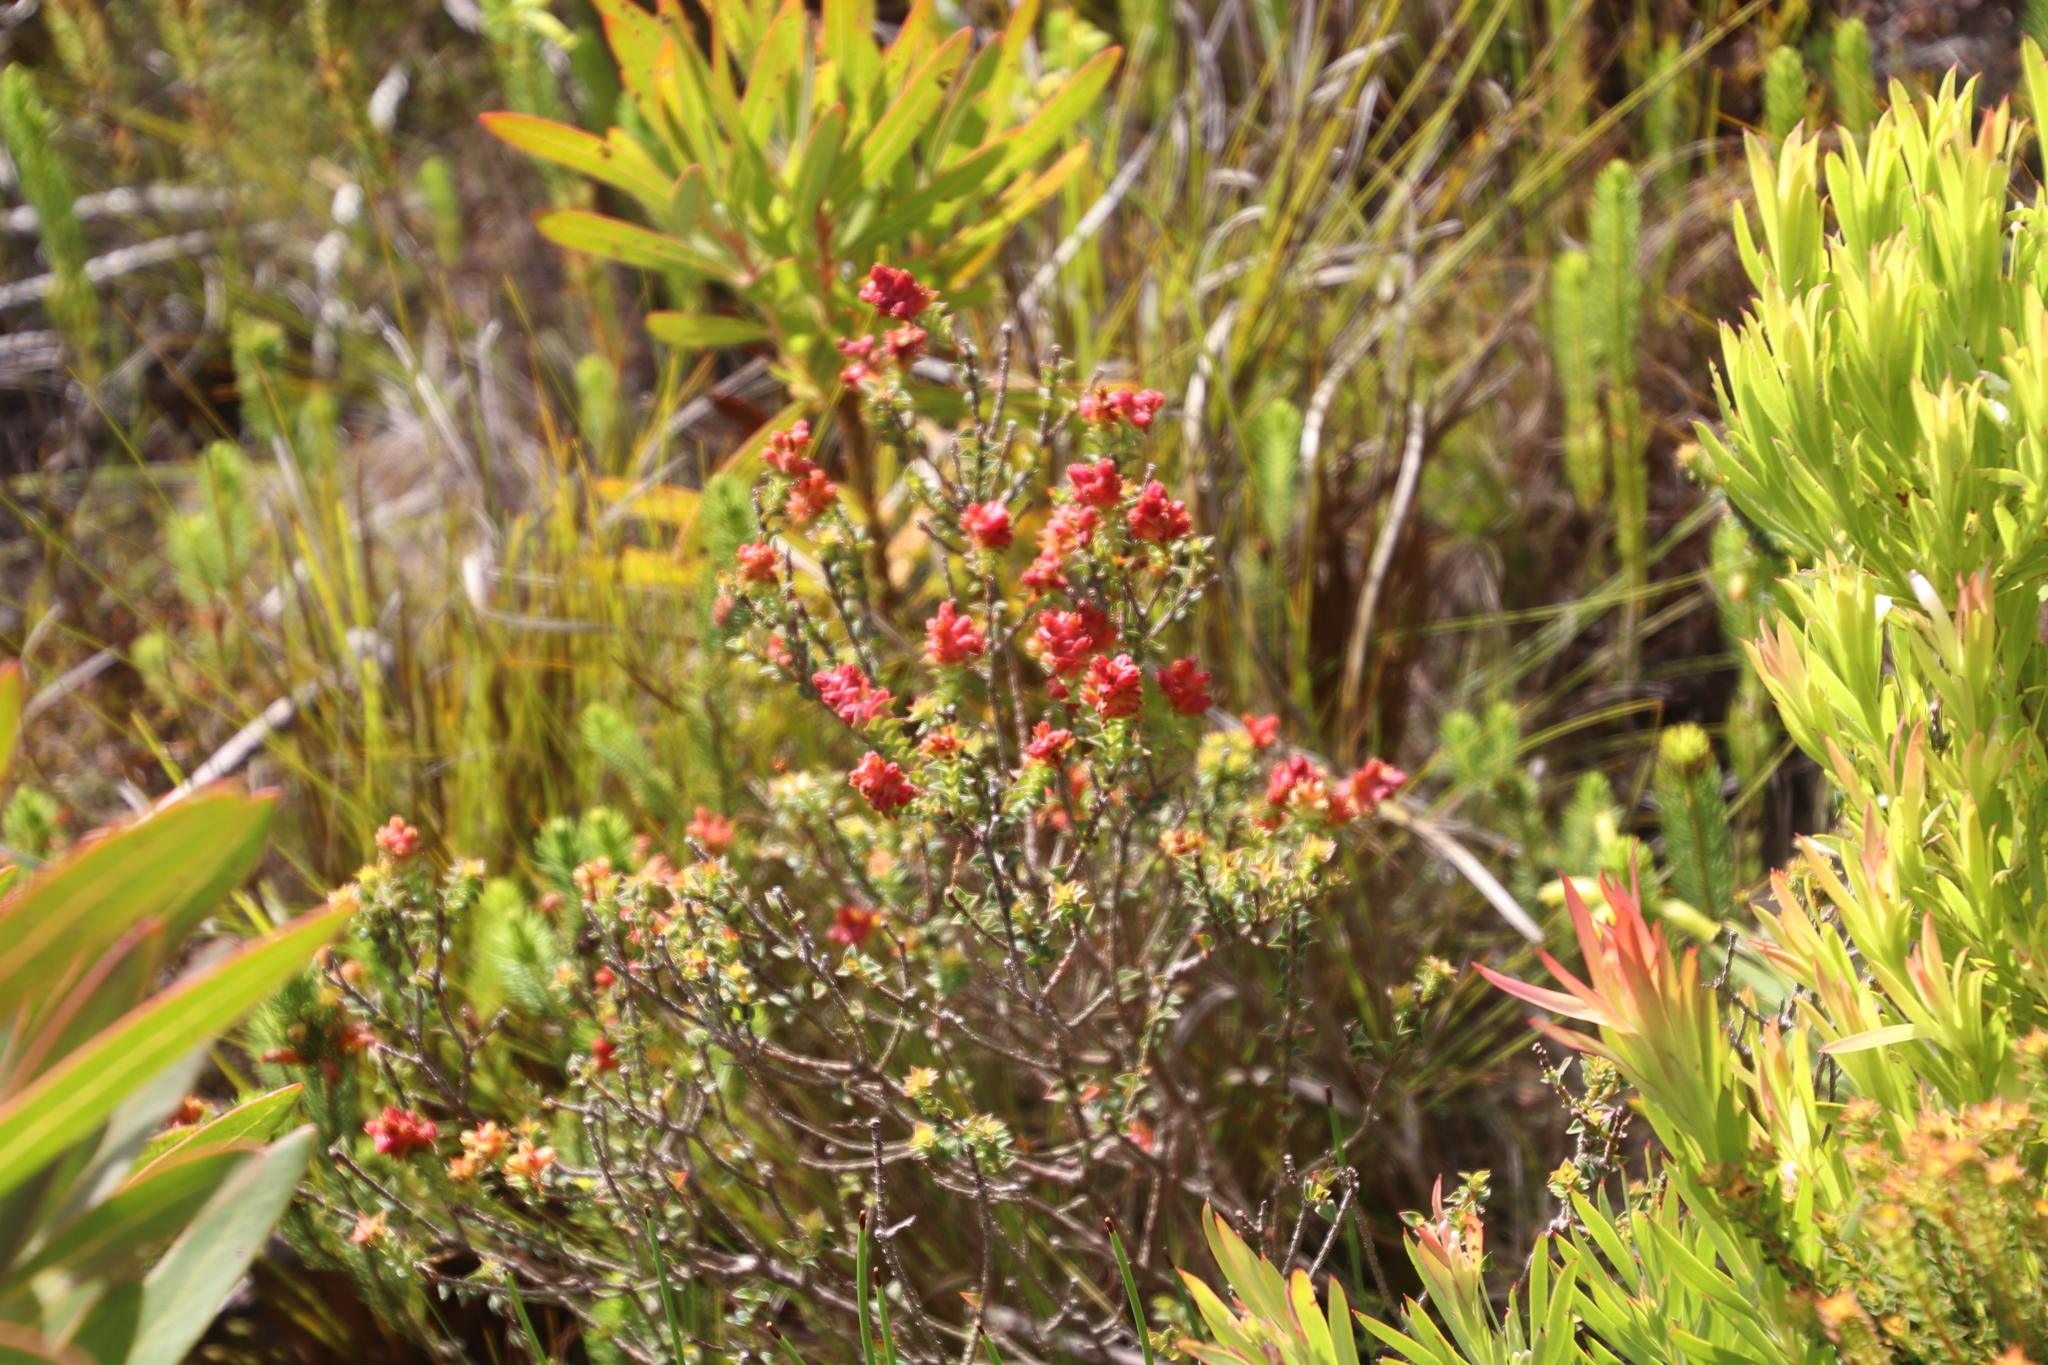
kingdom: Plantae
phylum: Tracheophyta
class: Magnoliopsida
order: Myrtales
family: Penaeaceae
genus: Penaea
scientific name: Penaea mucronata
